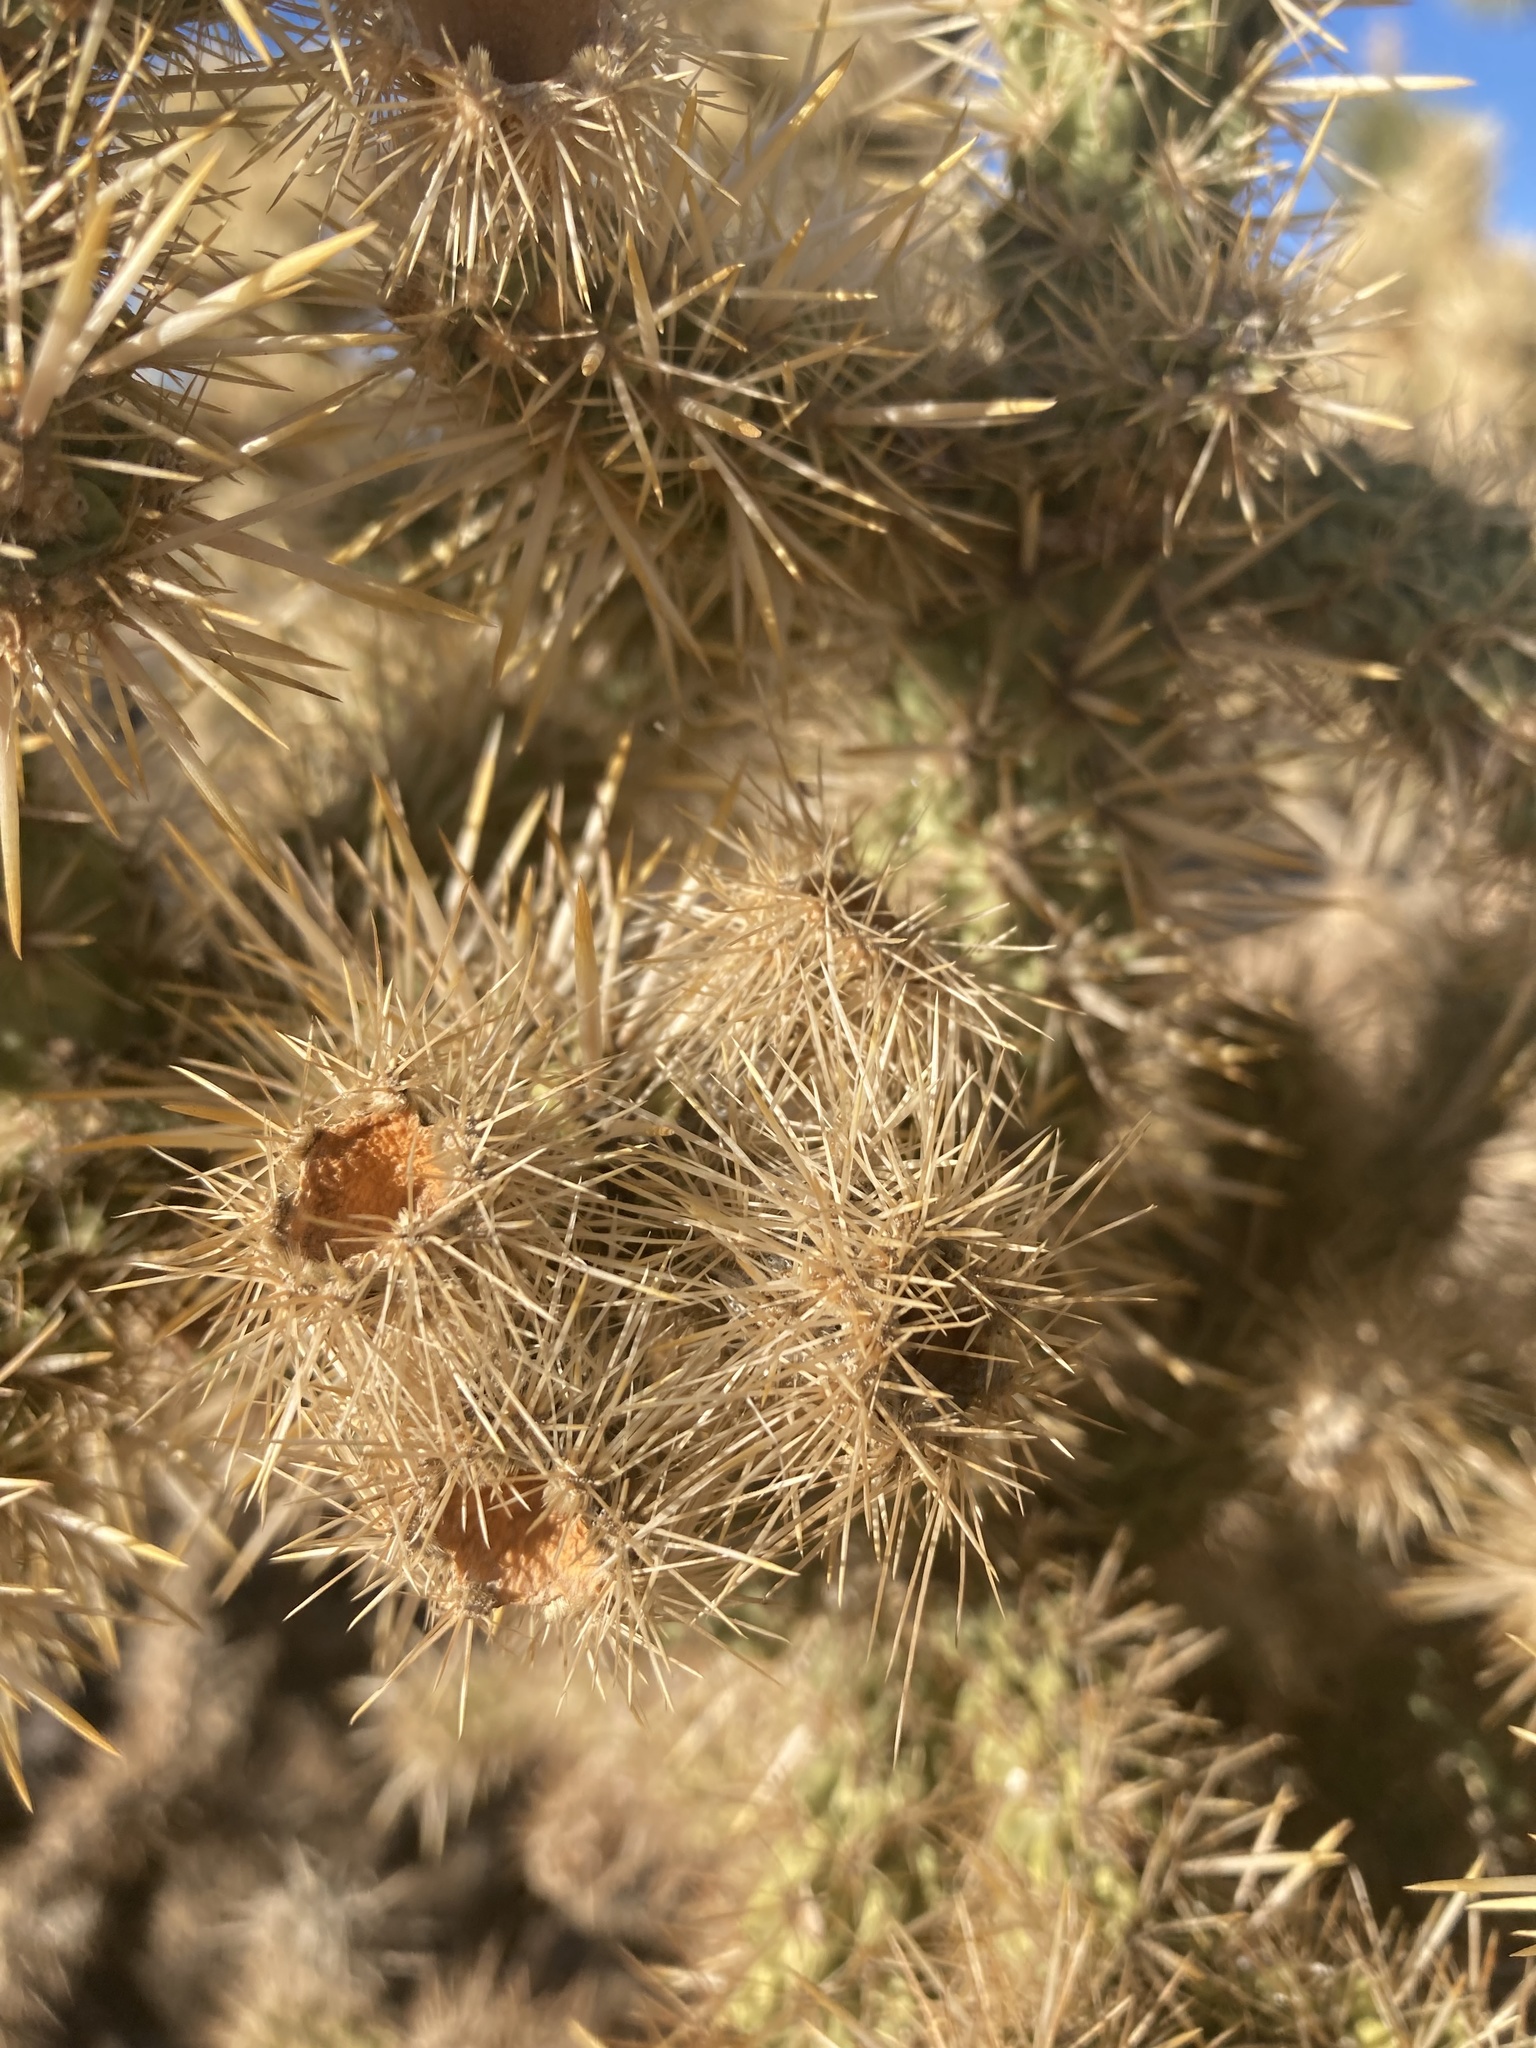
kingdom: Plantae
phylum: Tracheophyta
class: Magnoliopsida
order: Caryophyllales
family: Cactaceae
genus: Cylindropuntia
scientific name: Cylindropuntia echinocarpa
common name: Ground cholla
